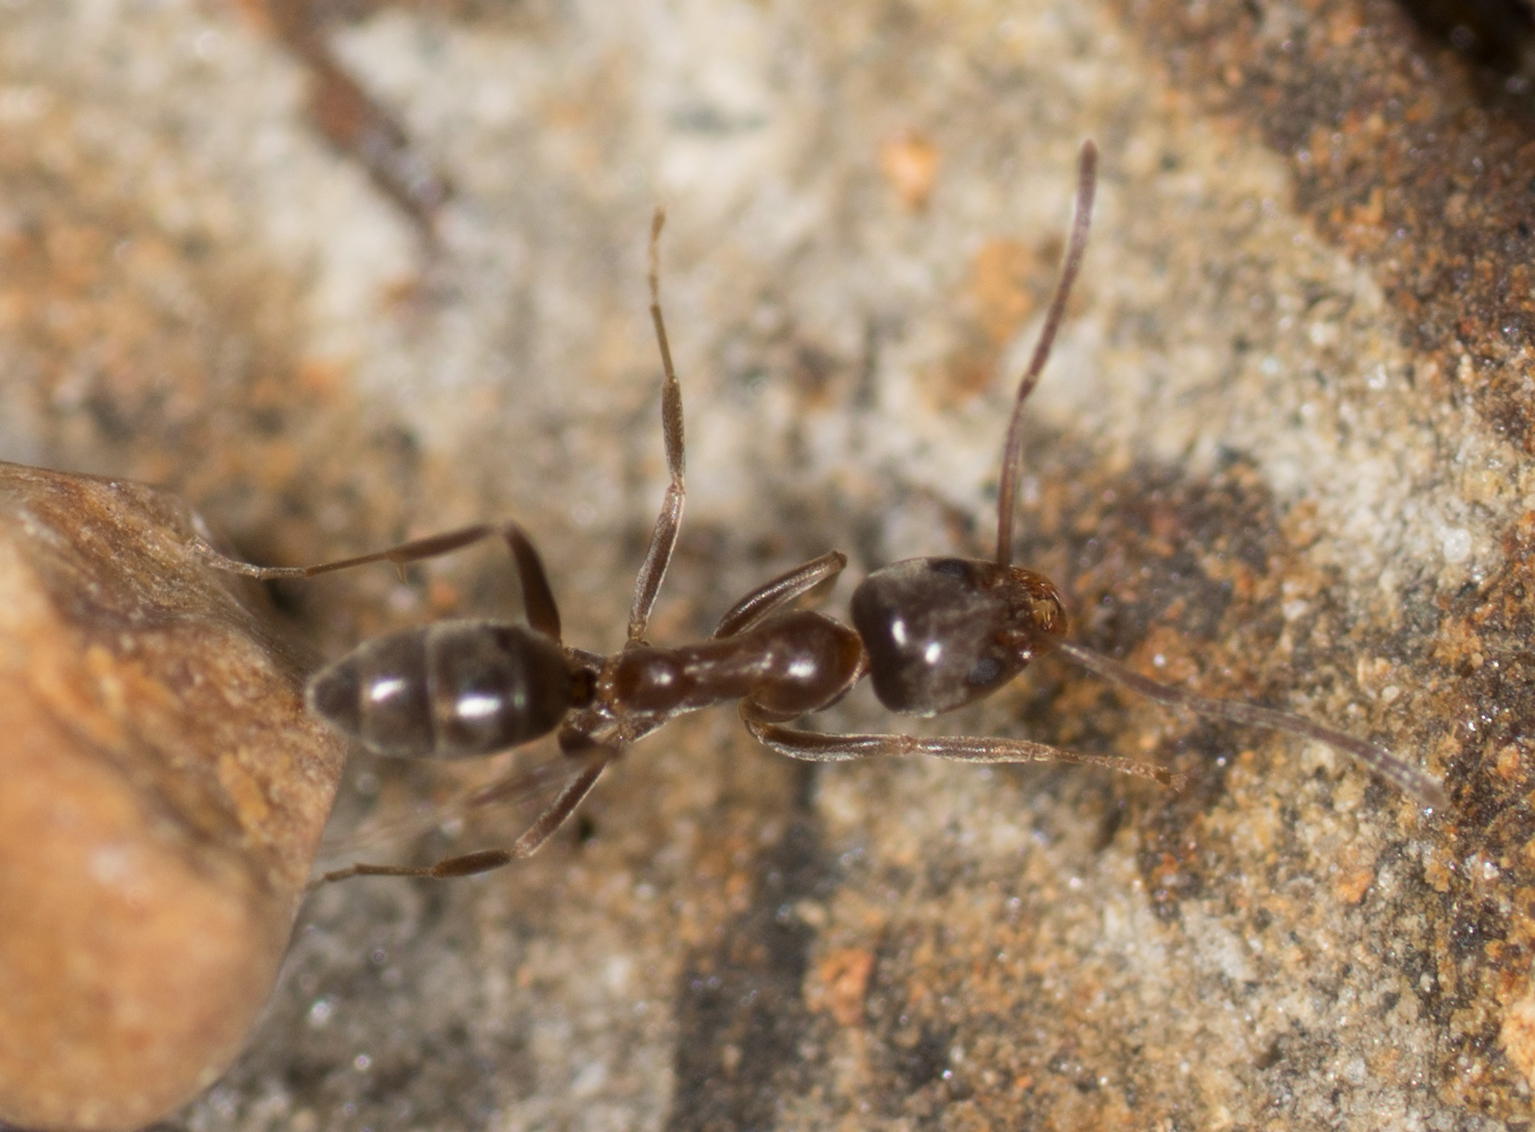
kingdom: Animalia
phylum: Arthropoda
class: Insecta
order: Hymenoptera
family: Formicidae
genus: Linepithema
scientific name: Linepithema humile
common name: Argentine ant
